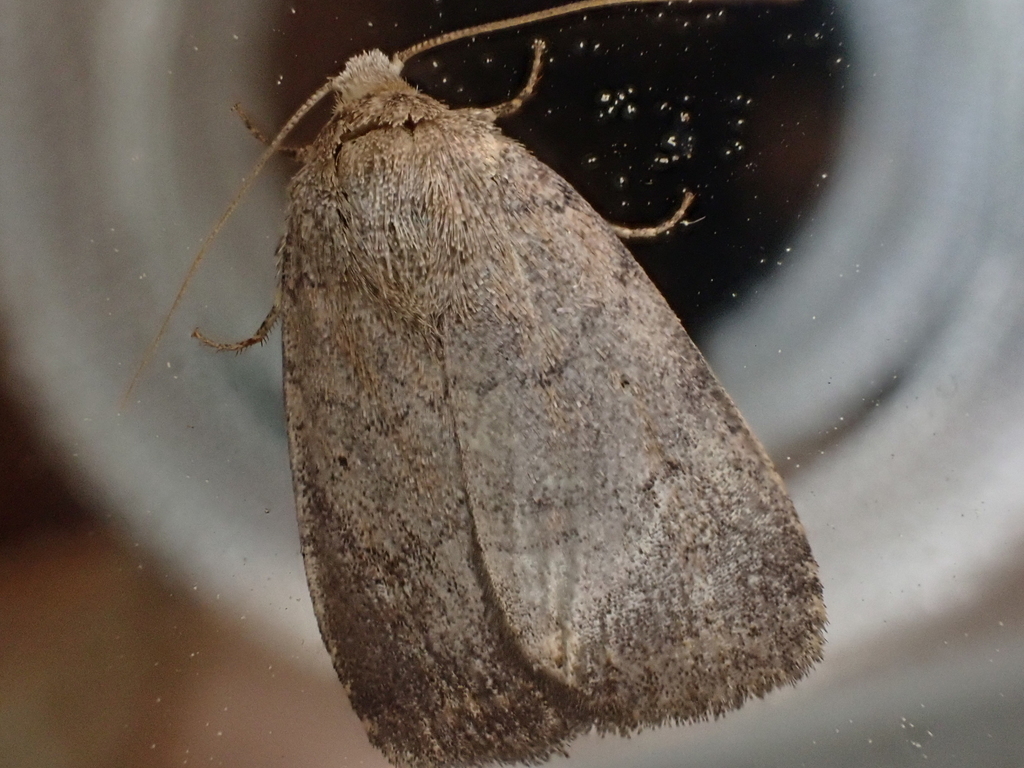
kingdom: Animalia
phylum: Arthropoda
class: Insecta
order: Lepidoptera
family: Noctuidae
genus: Athetis
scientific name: Athetis tarda
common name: Slowpoke moth
